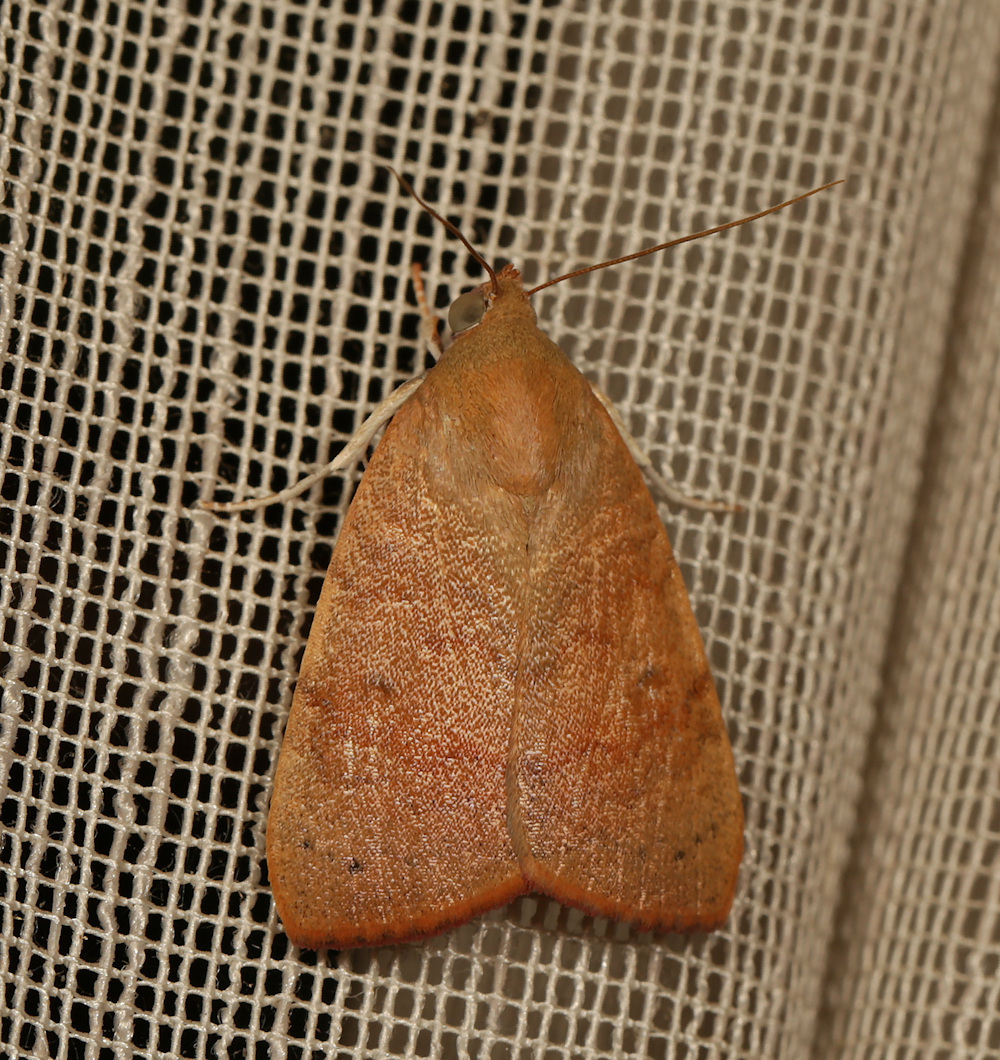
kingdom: Animalia
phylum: Arthropoda
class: Insecta
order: Lepidoptera
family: Nolidae
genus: Maurilia
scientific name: Maurilia arcuata
